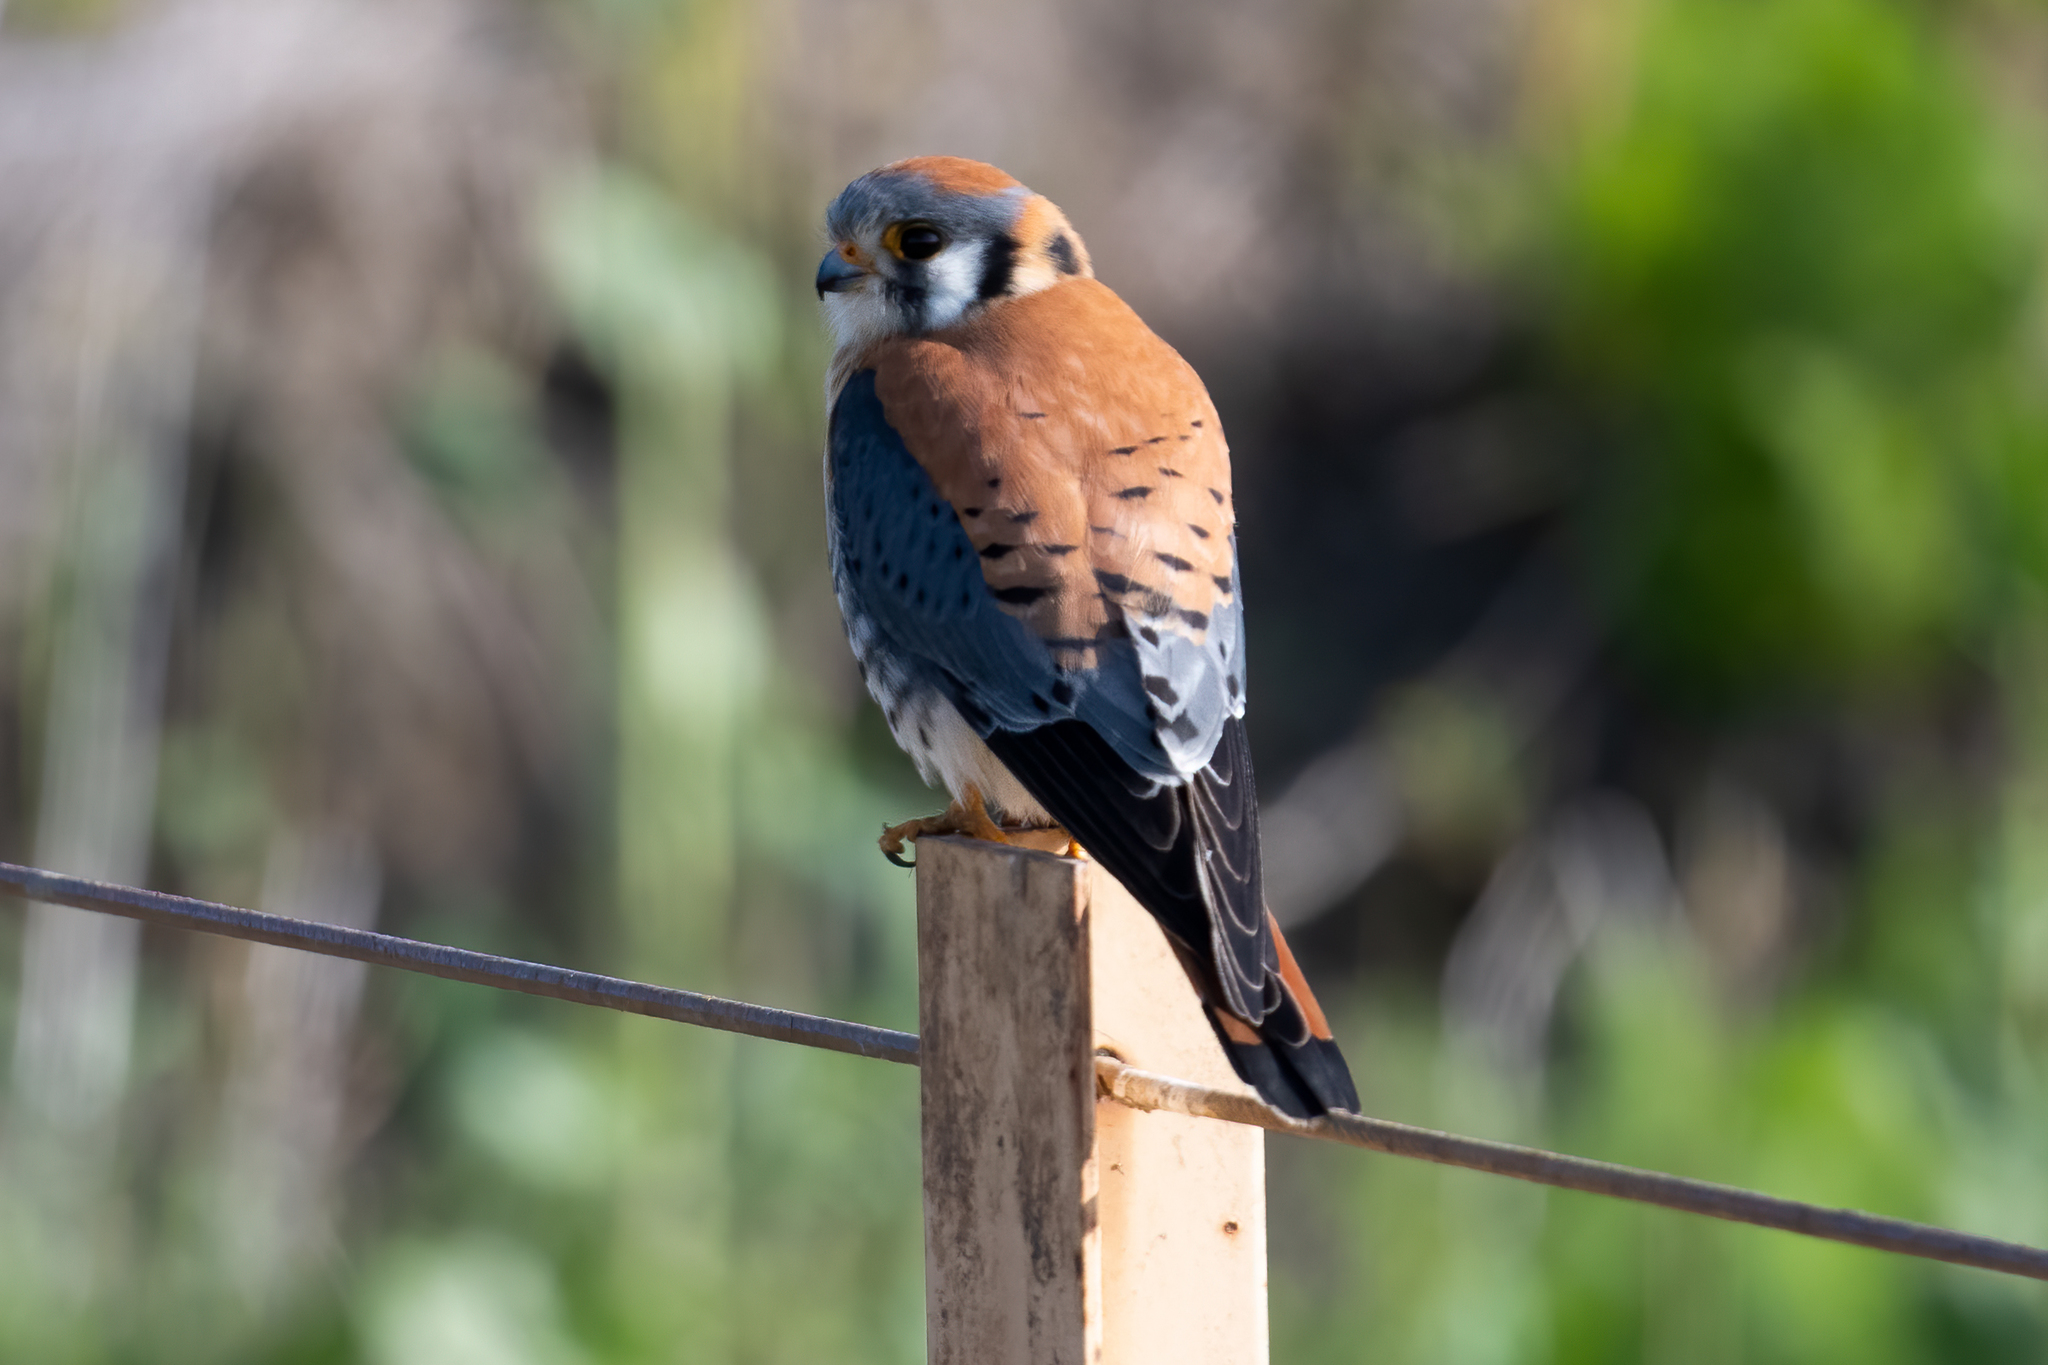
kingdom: Animalia
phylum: Chordata
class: Aves
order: Falconiformes
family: Falconidae
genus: Falco
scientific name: Falco sparverius
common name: American kestrel
